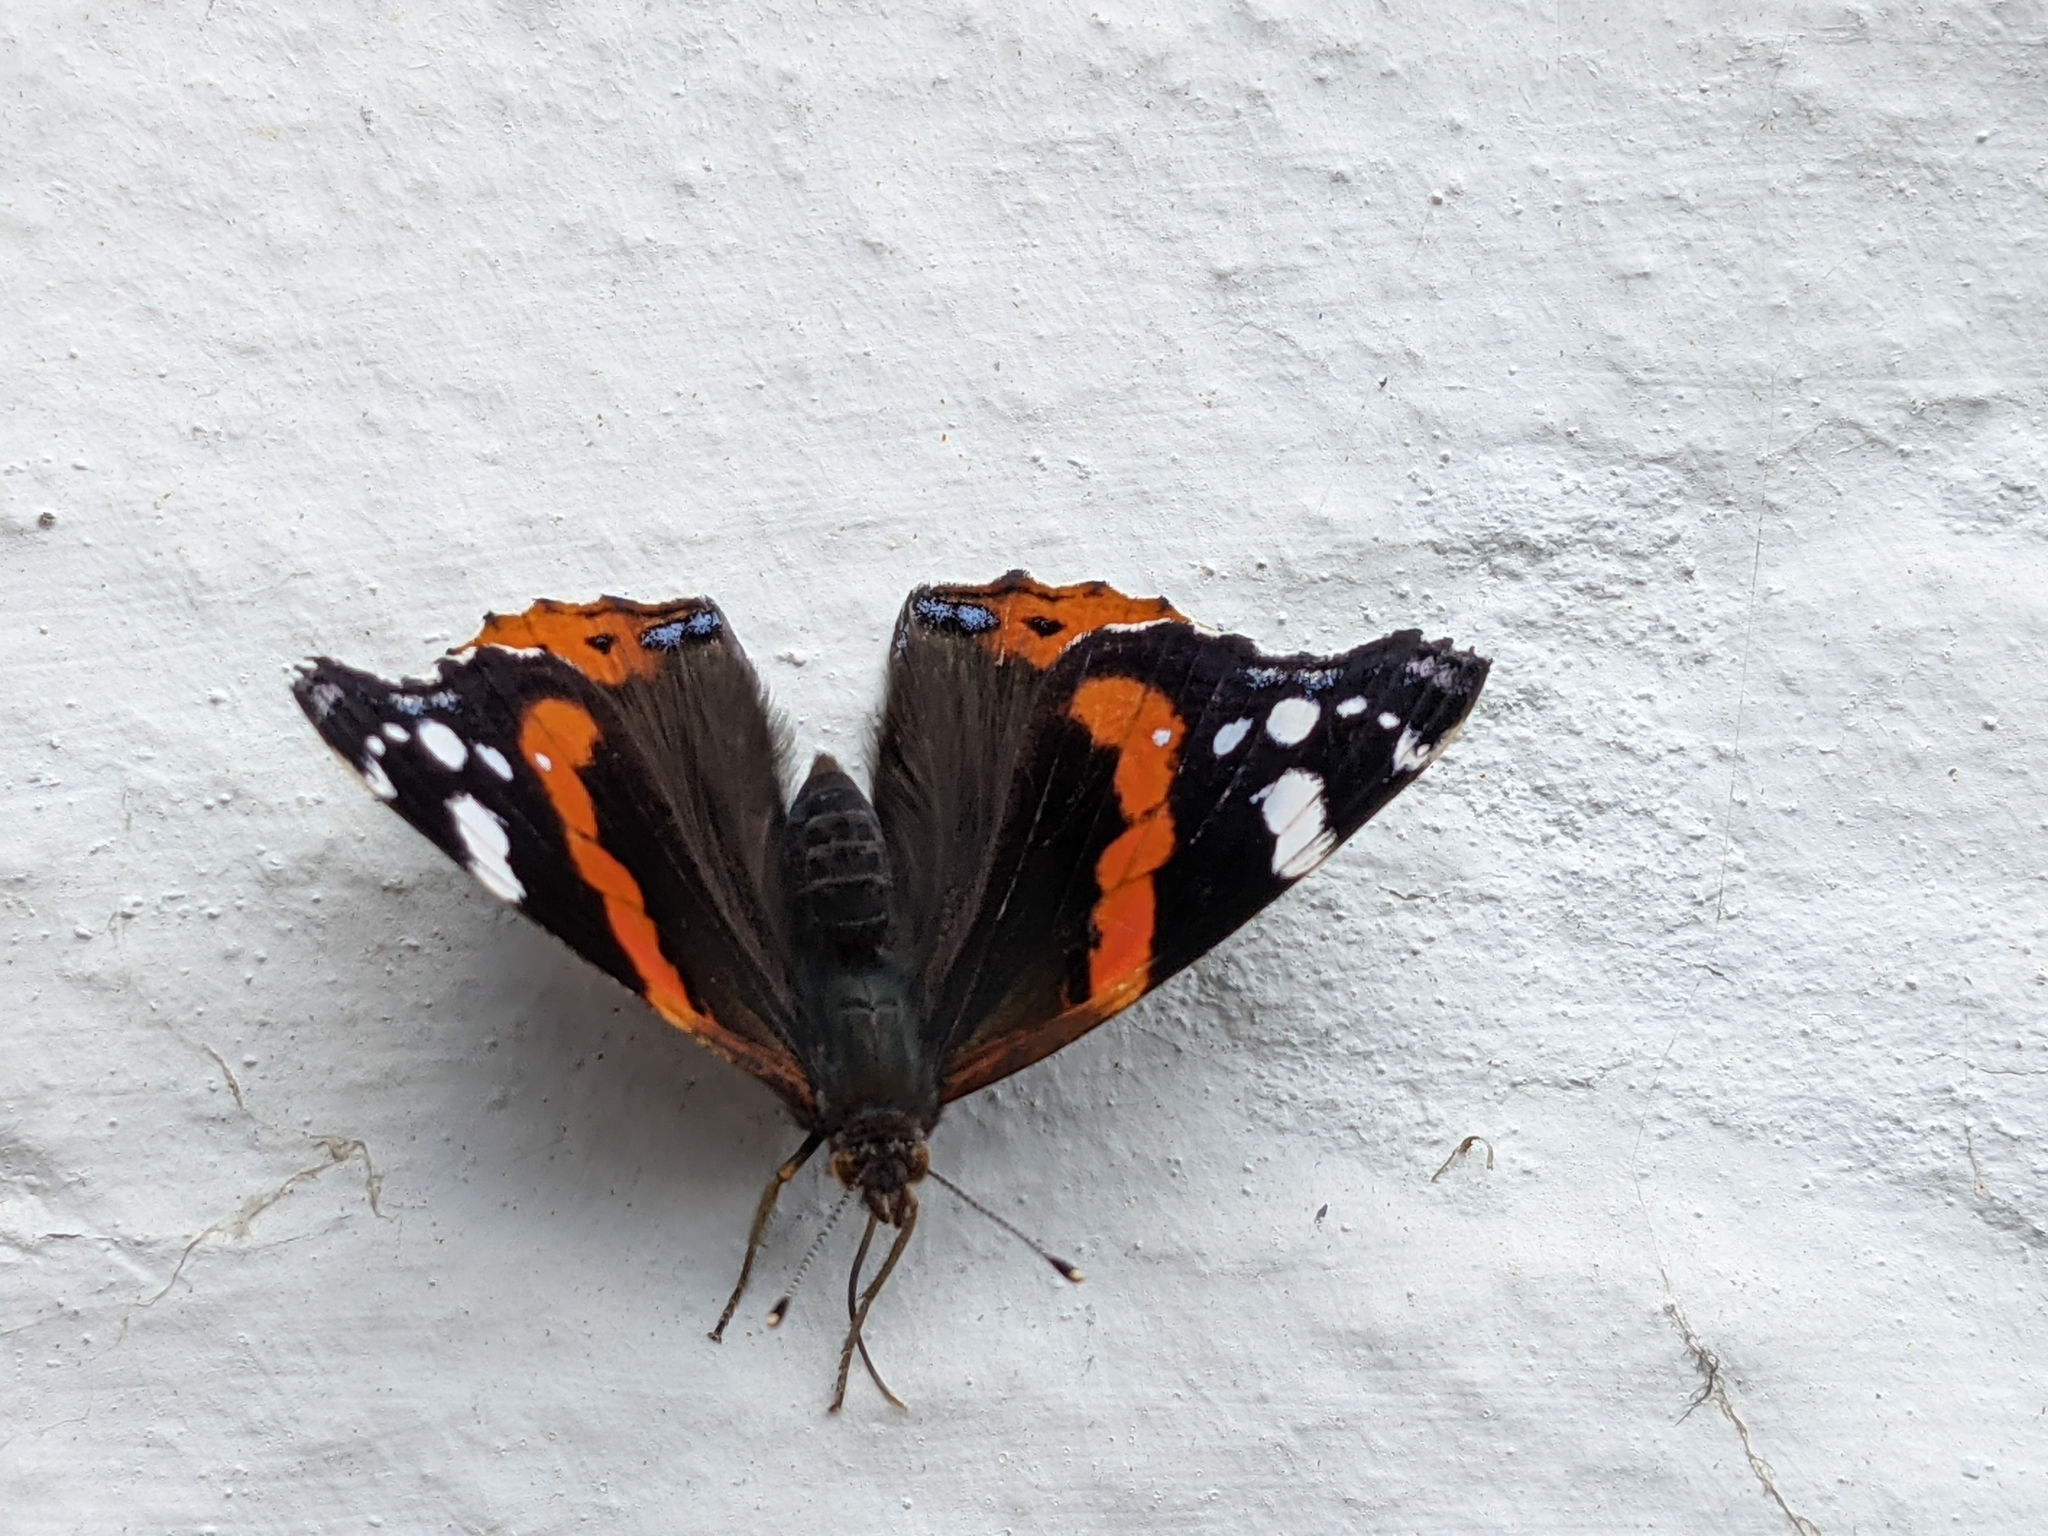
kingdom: Animalia
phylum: Arthropoda
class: Insecta
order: Lepidoptera
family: Nymphalidae
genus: Vanessa
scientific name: Vanessa atalanta
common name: Red admiral
